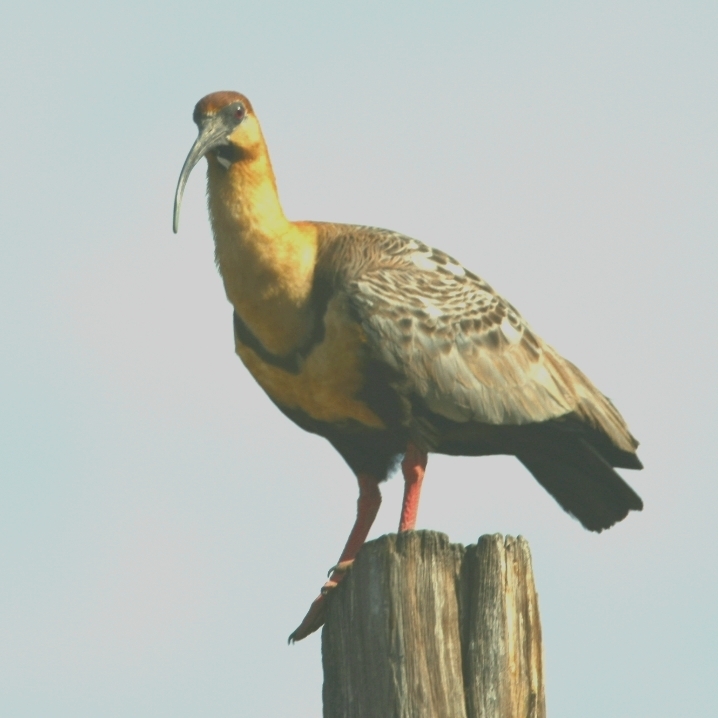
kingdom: Animalia
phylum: Chordata
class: Aves
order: Pelecaniformes
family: Threskiornithidae
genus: Theristicus
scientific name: Theristicus melanopis
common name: Black-faced ibis
